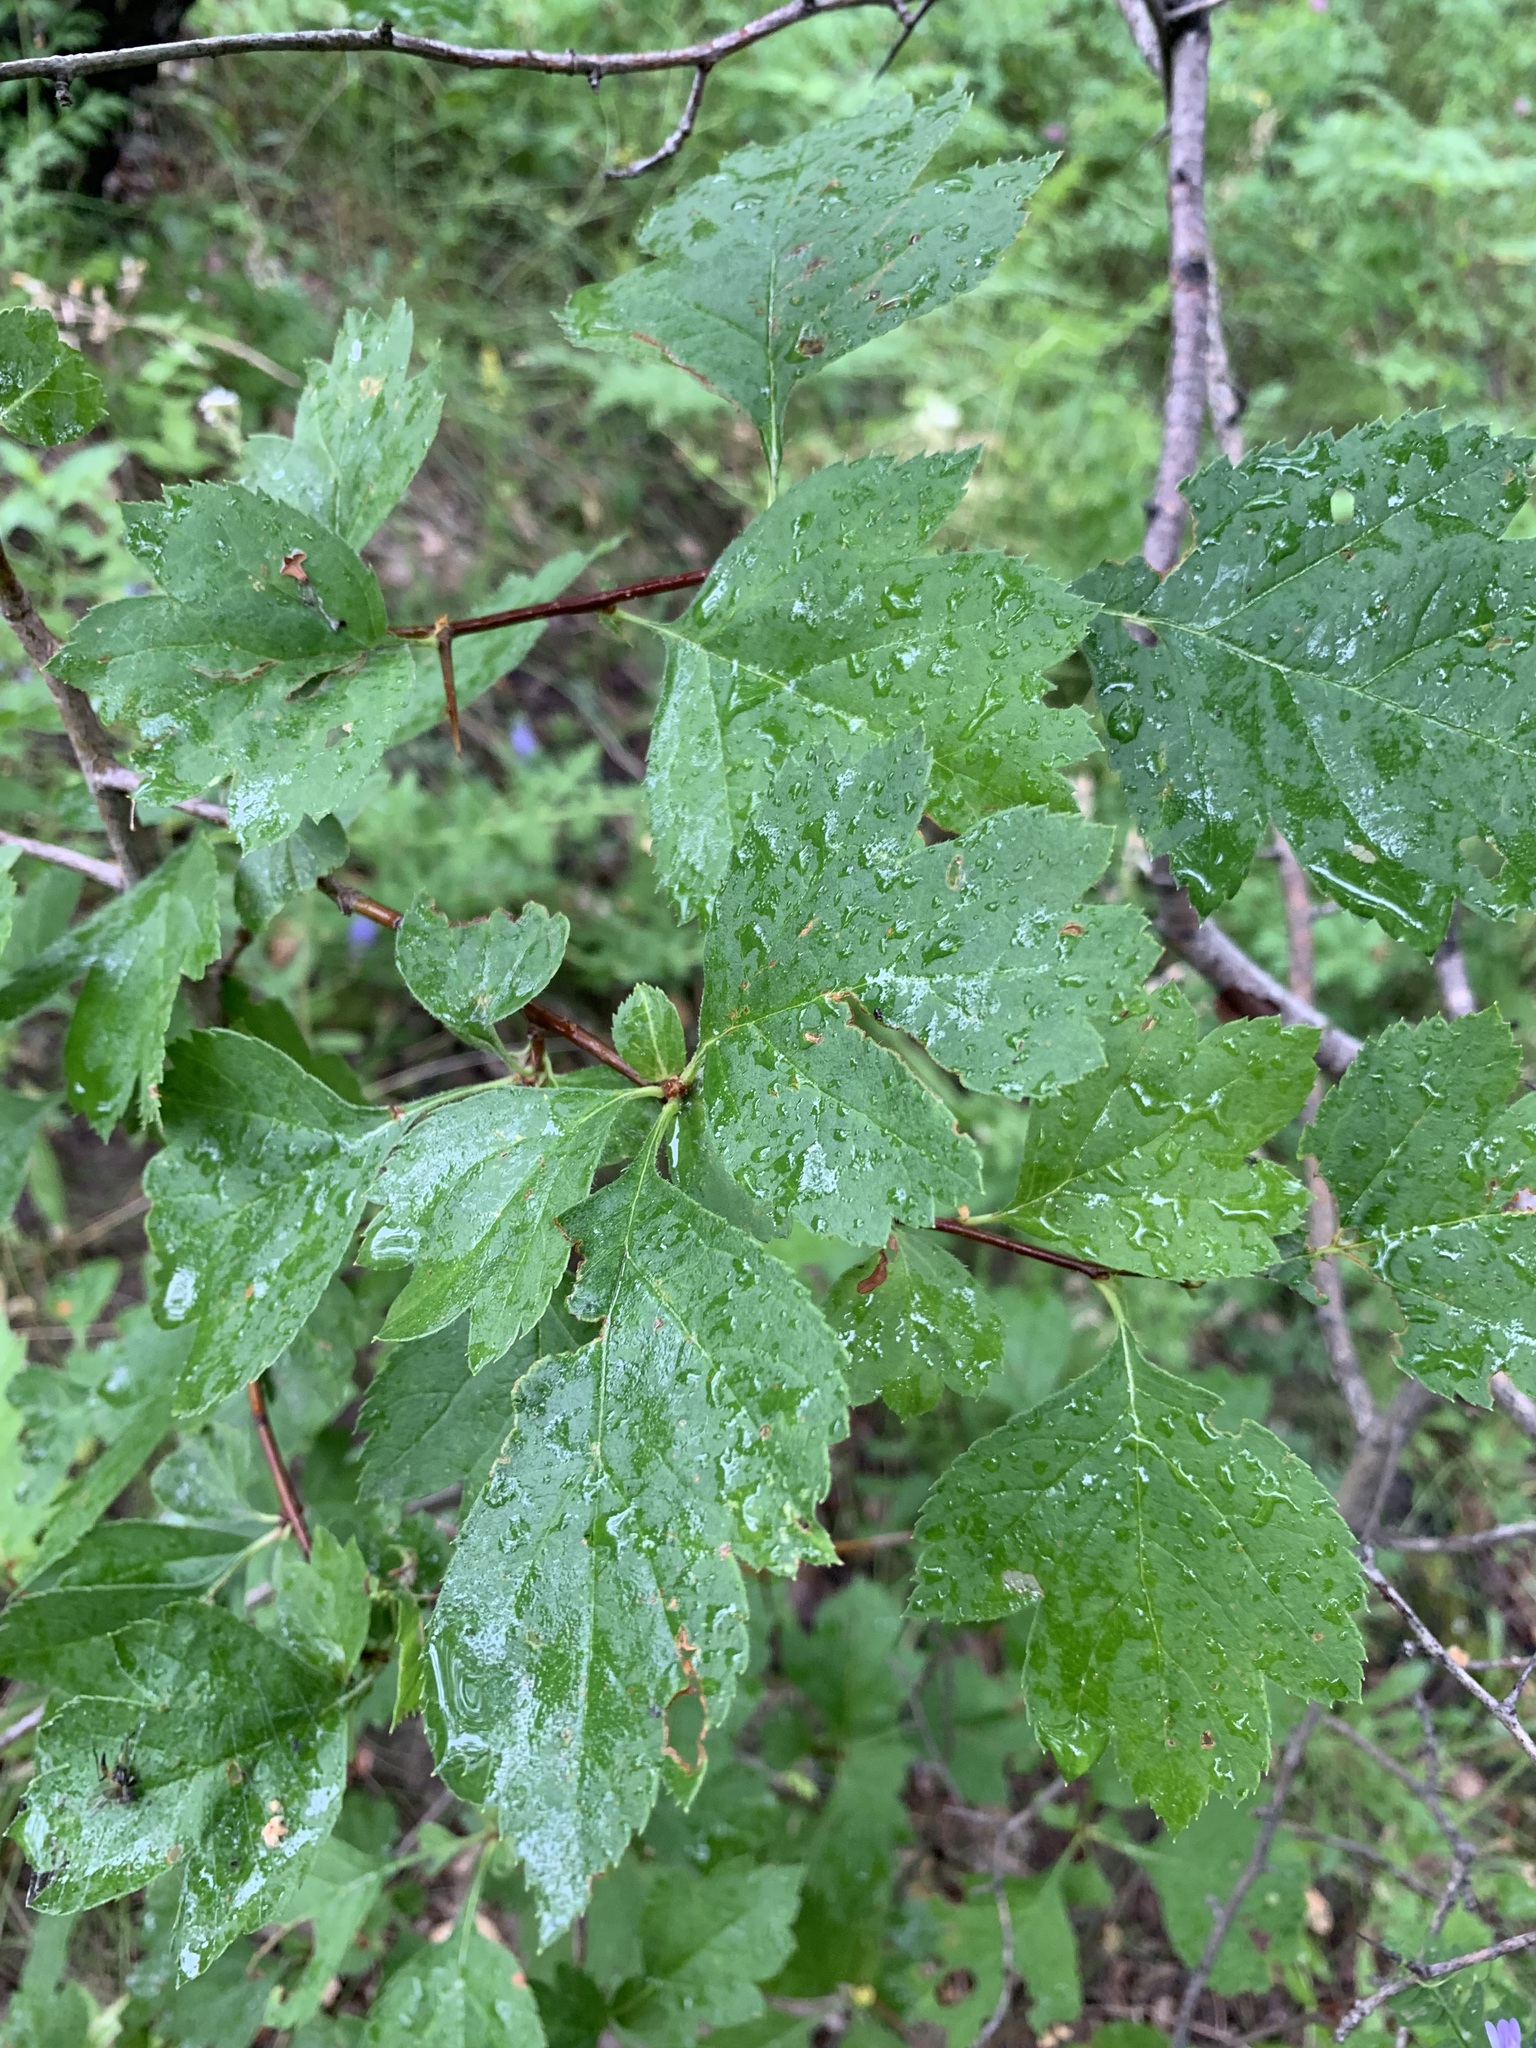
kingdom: Plantae
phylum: Tracheophyta
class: Magnoliopsida
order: Rosales
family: Rosaceae
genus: Crataegus
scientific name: Crataegus sanguinea
